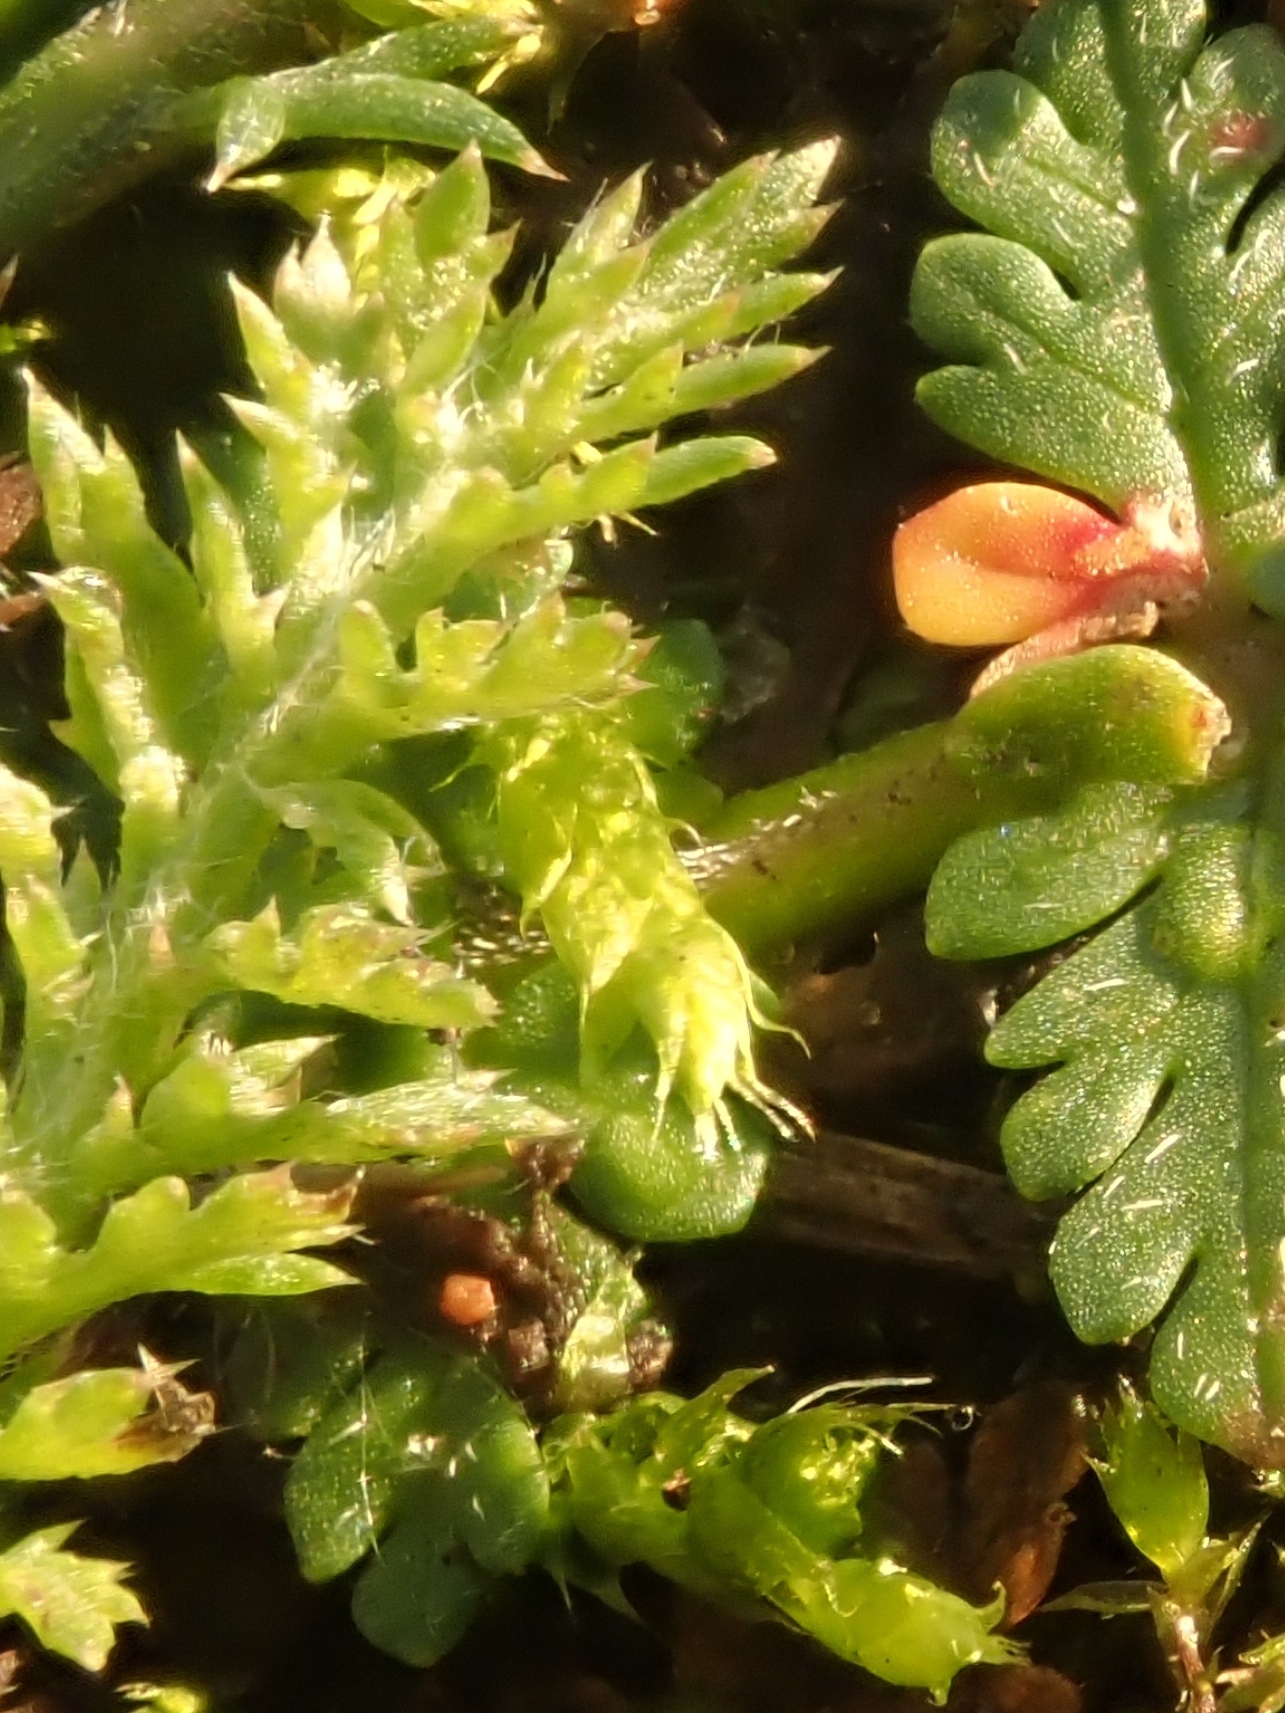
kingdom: Plantae
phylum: Tracheophyta
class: Magnoliopsida
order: Asterales
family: Asteraceae
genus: Achillea
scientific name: Achillea millefolium
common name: Yarrow
